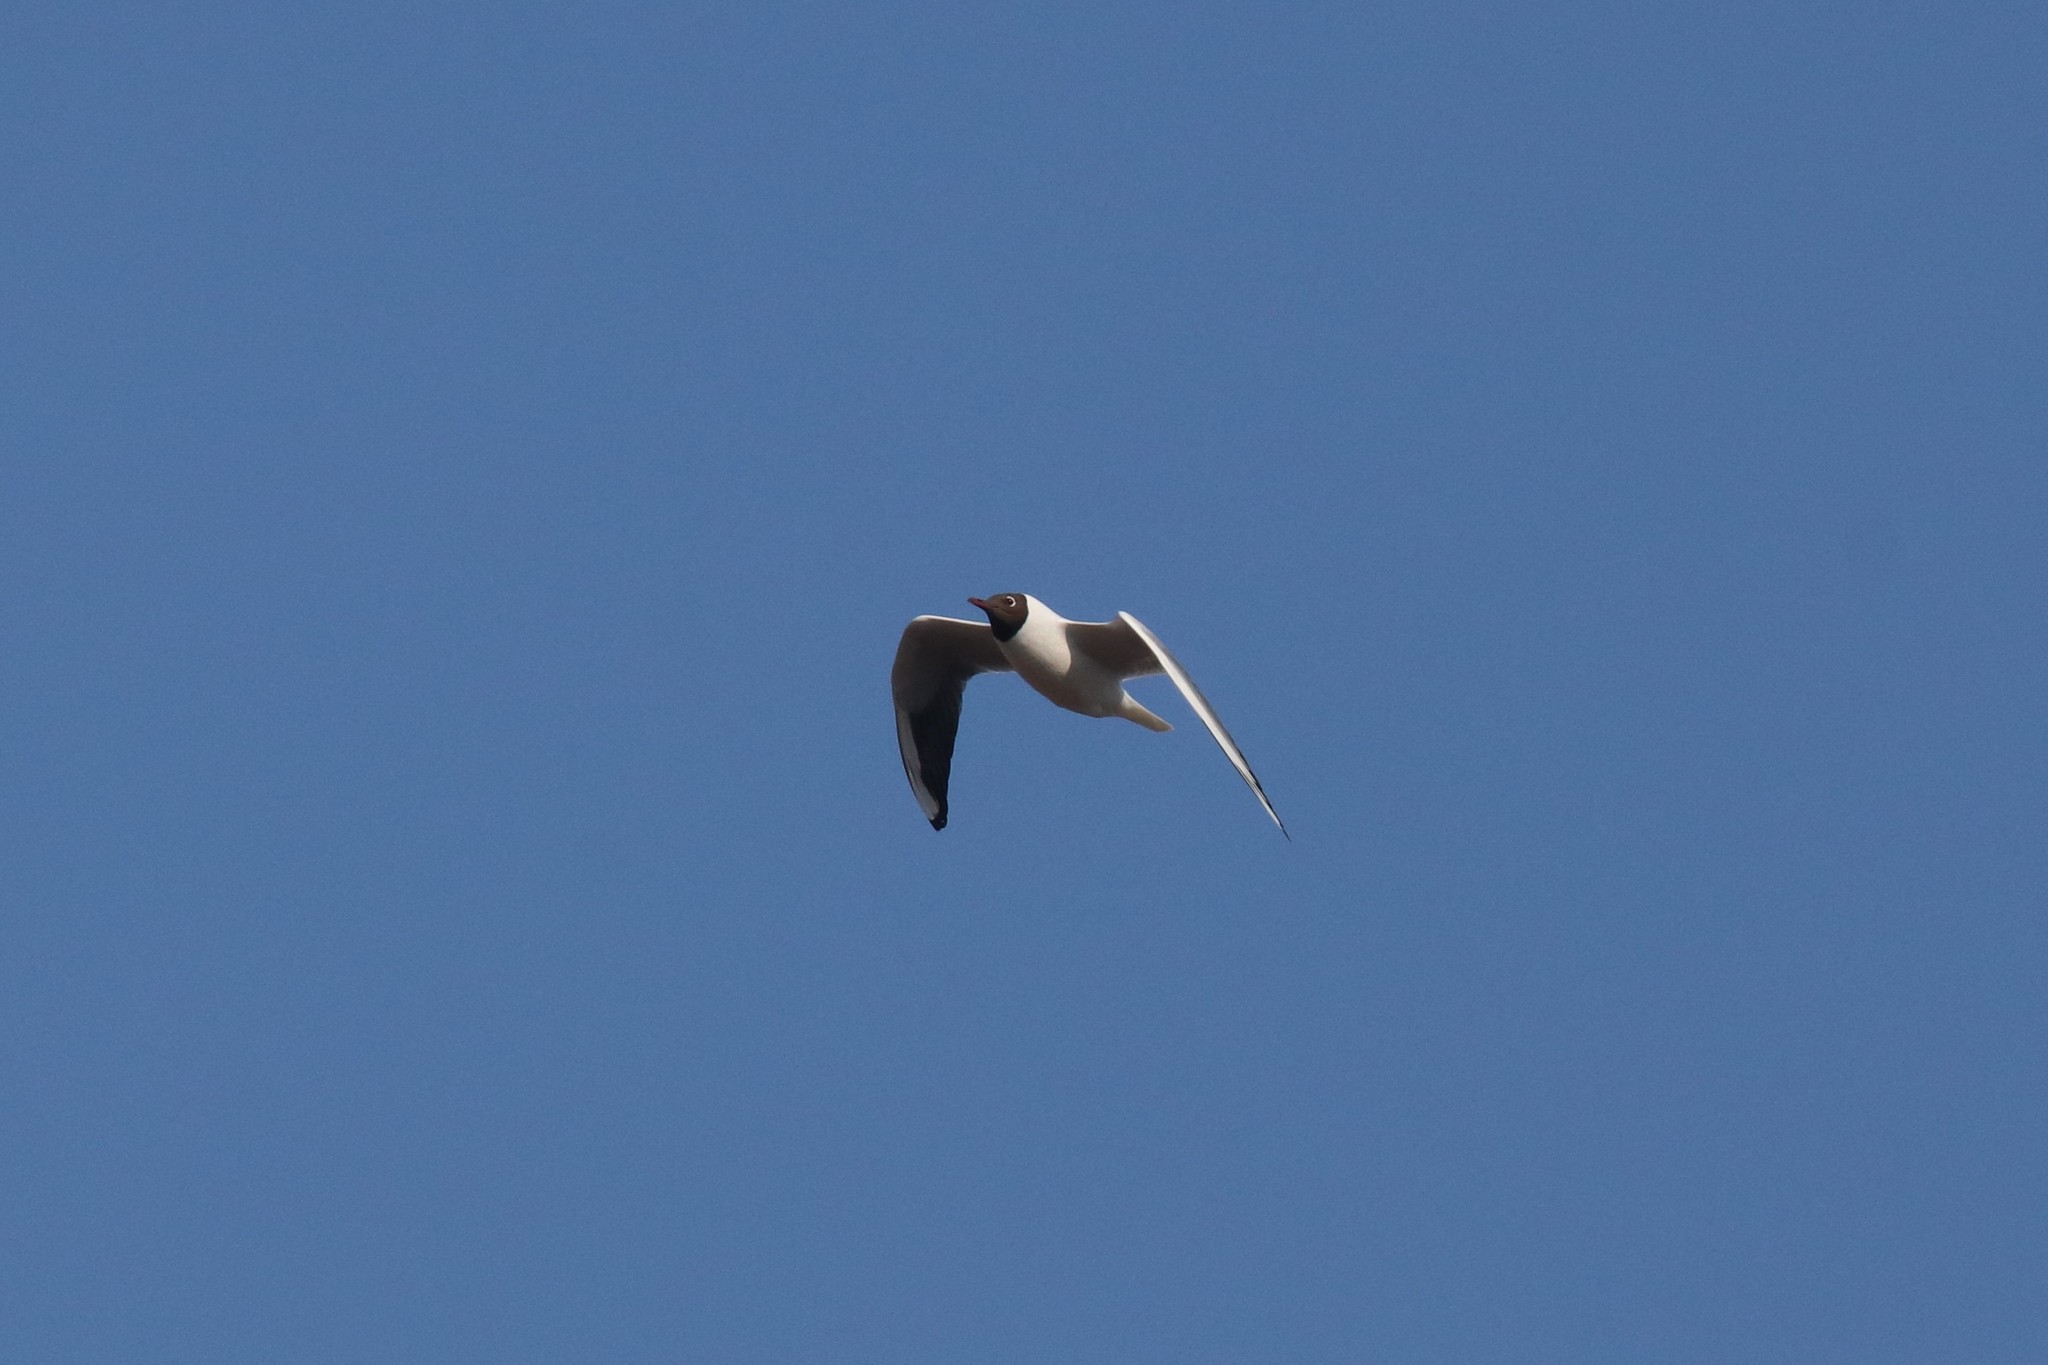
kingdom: Animalia
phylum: Chordata
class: Aves
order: Charadriiformes
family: Laridae
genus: Chroicocephalus
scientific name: Chroicocephalus ridibundus
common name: Black-headed gull
